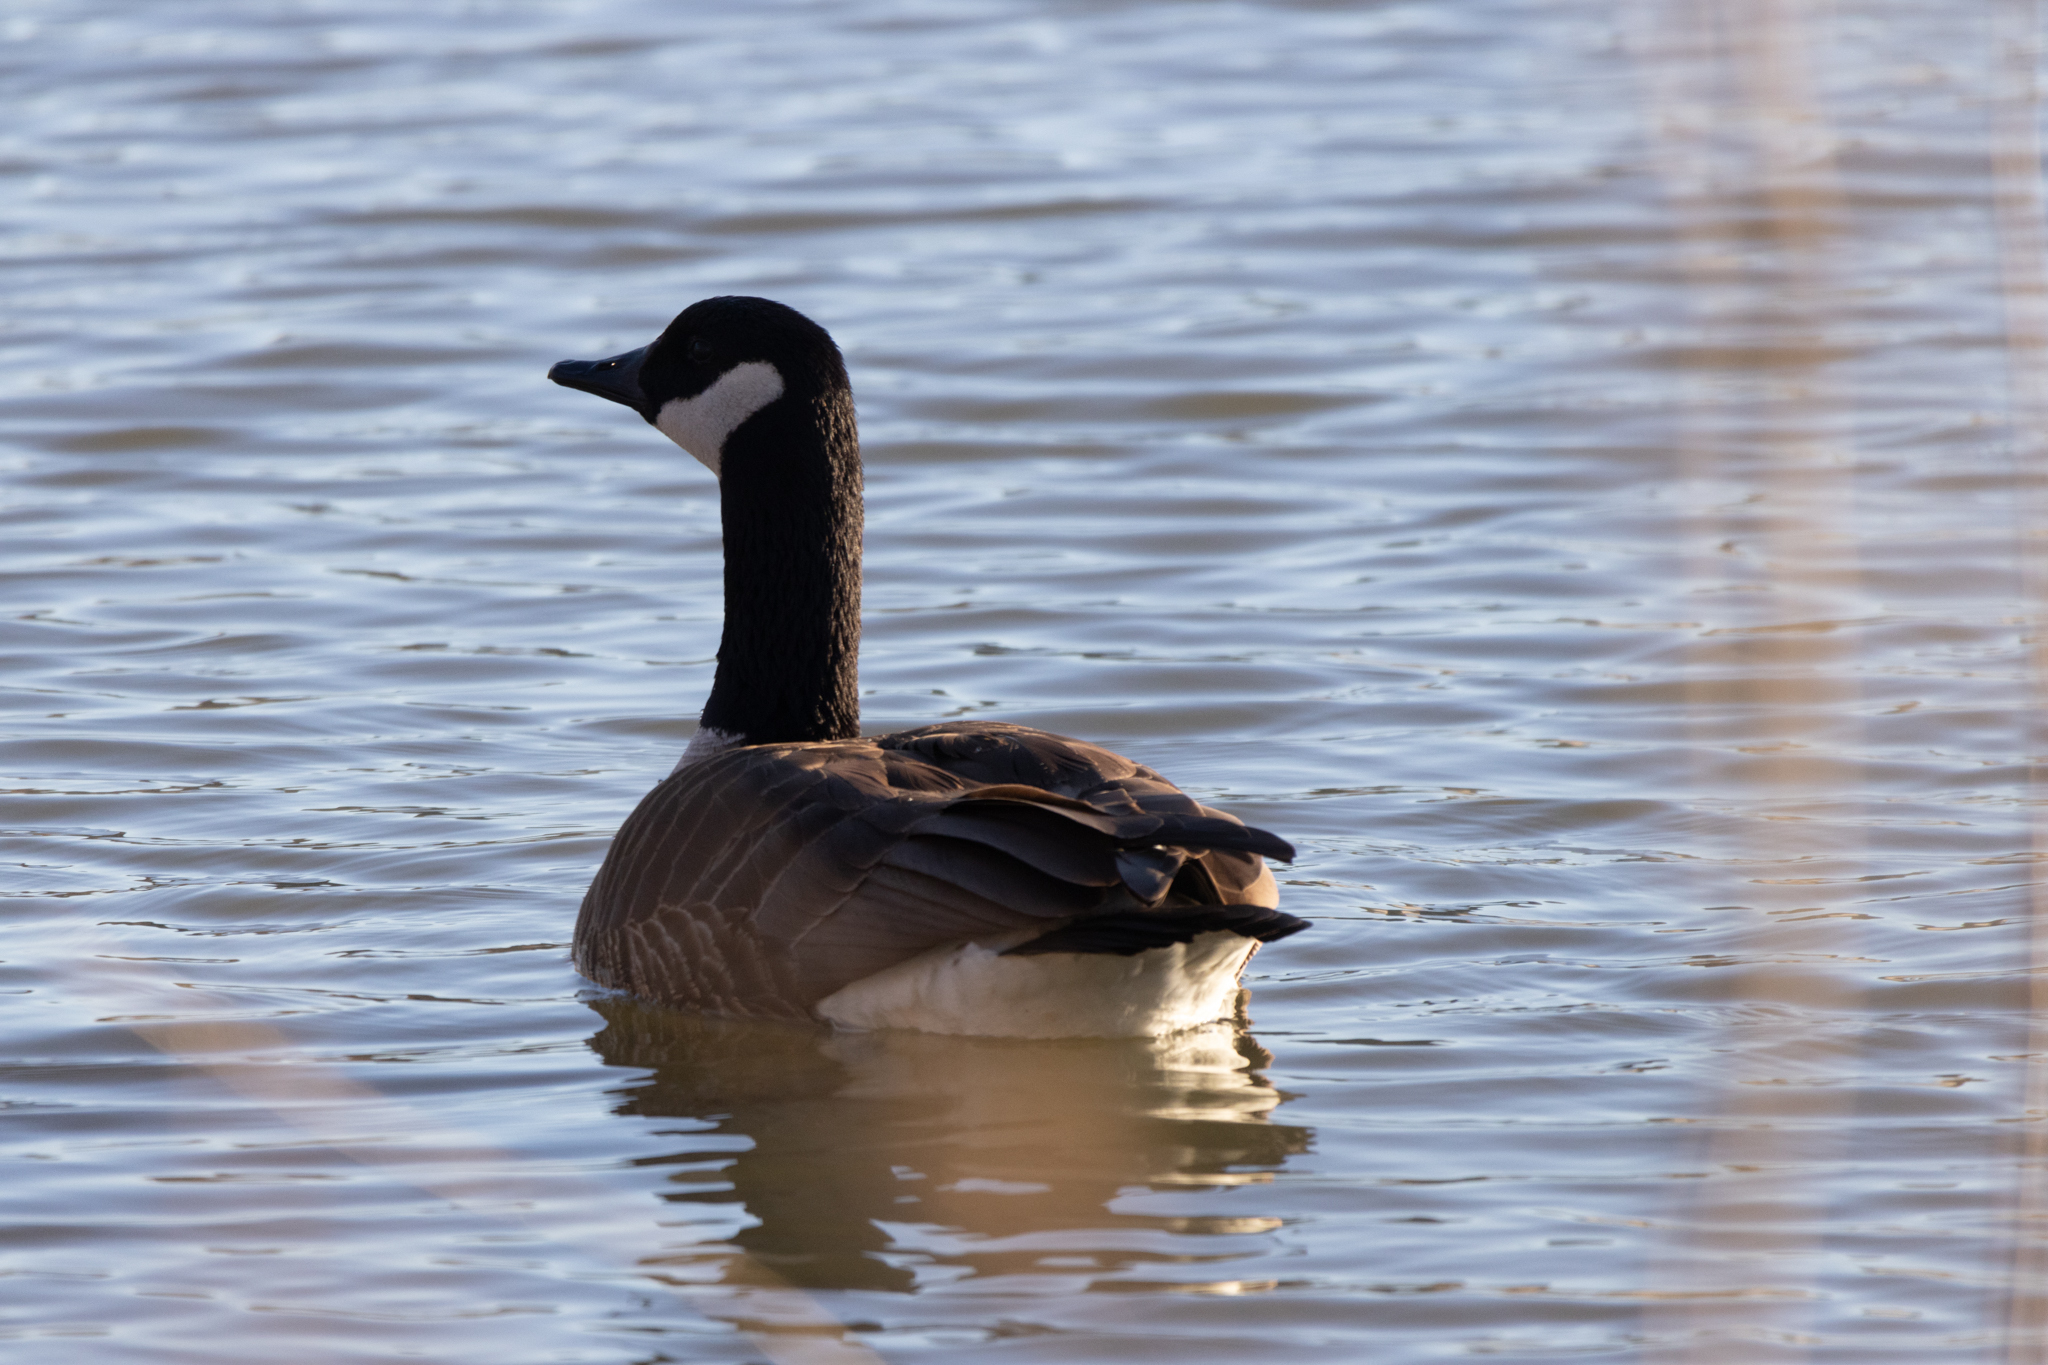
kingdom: Animalia
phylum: Chordata
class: Aves
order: Anseriformes
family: Anatidae
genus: Branta
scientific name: Branta canadensis
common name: Canada goose
